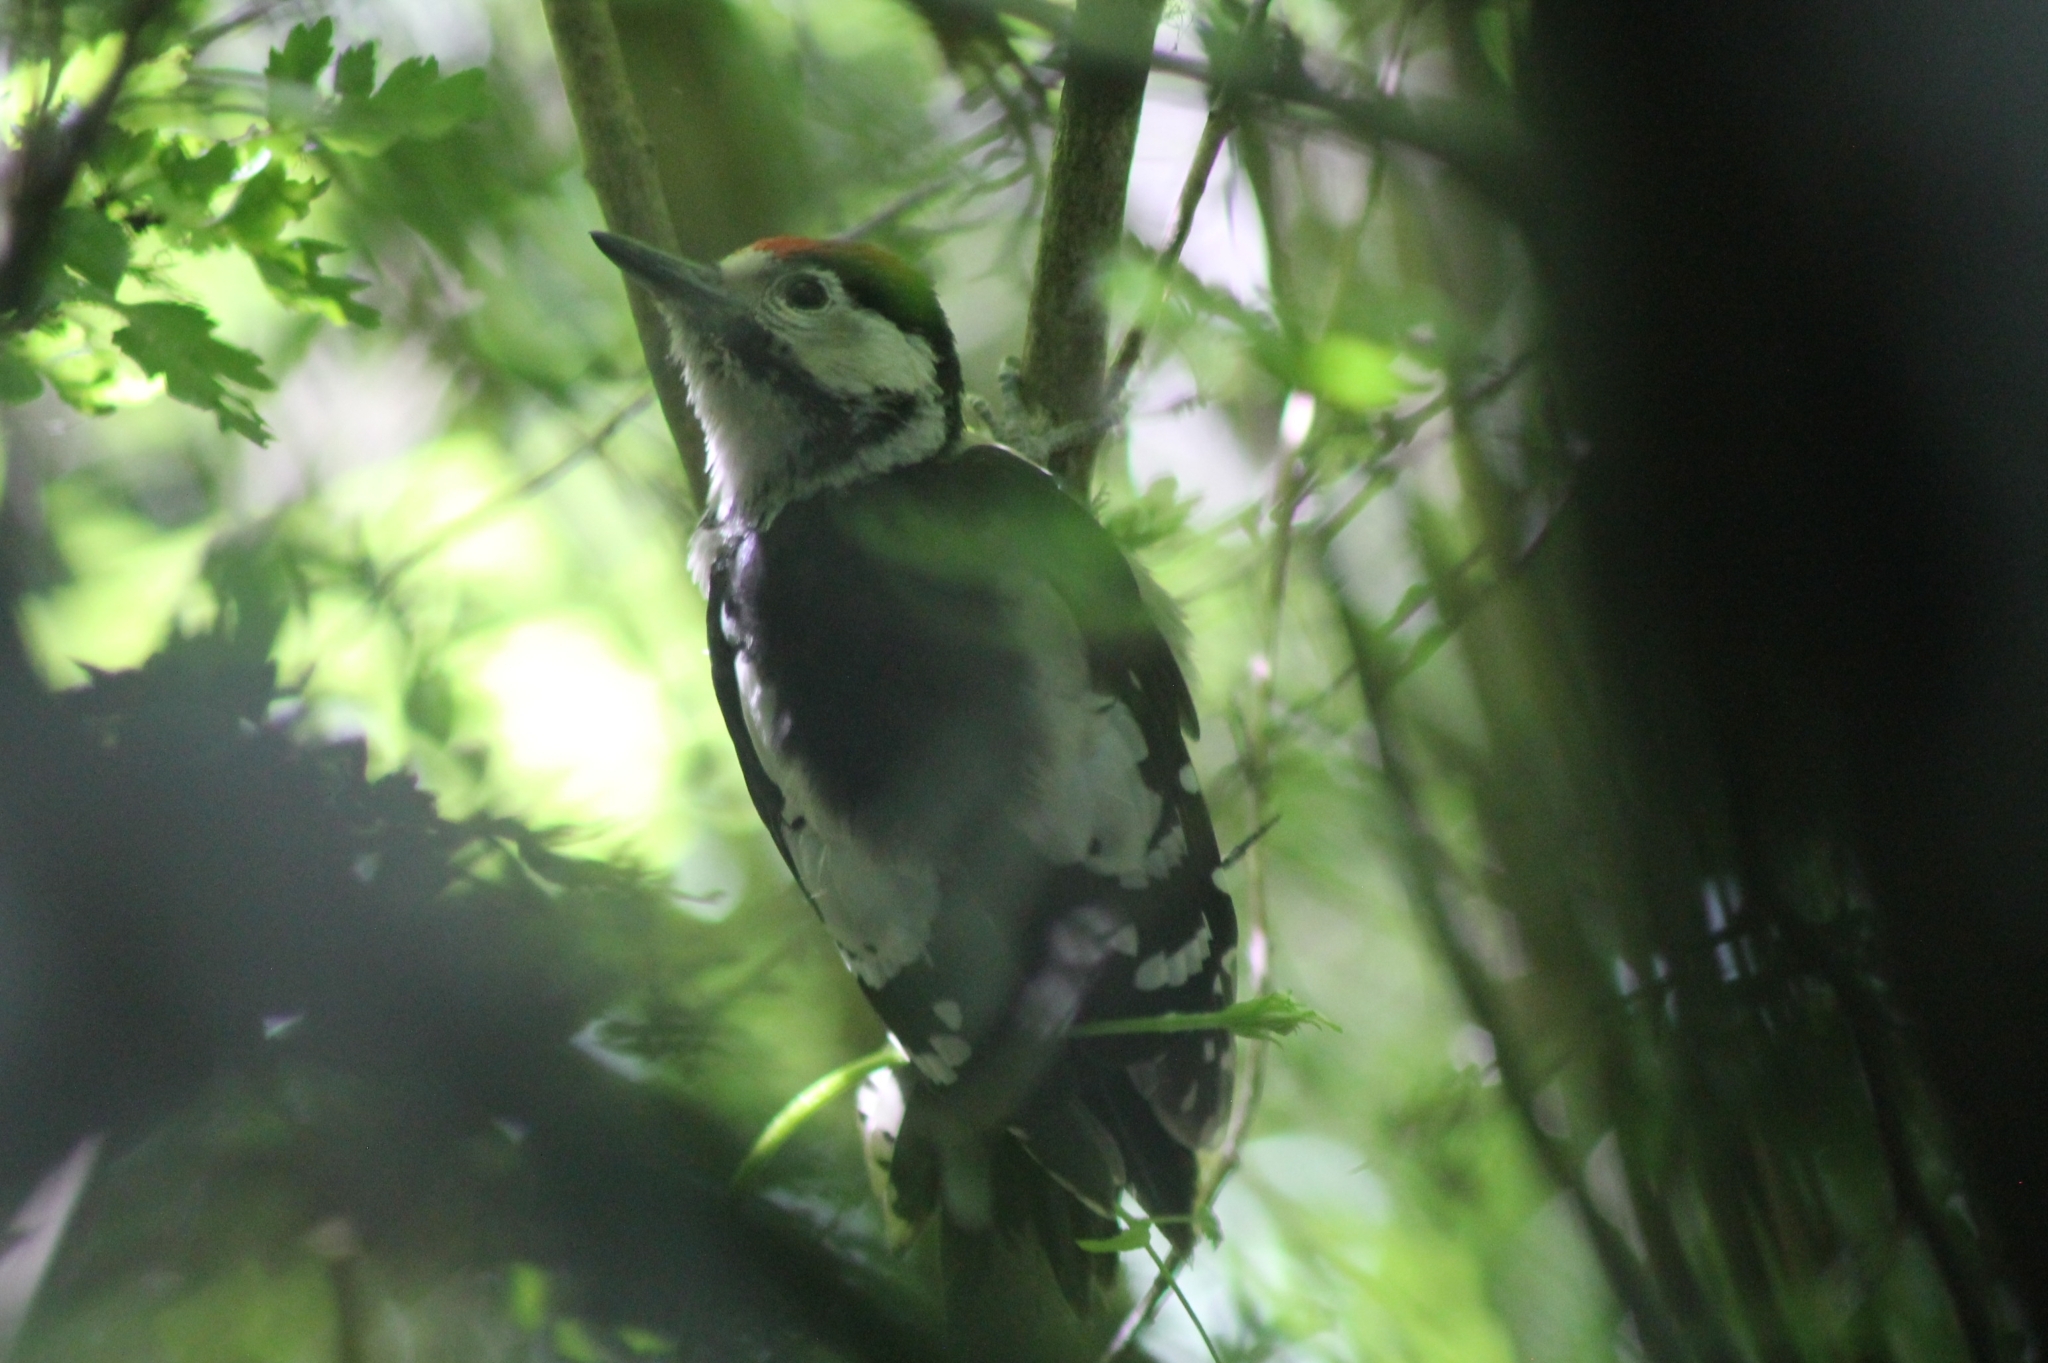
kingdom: Animalia
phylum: Chordata
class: Aves
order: Piciformes
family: Picidae
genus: Dendrocopos
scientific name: Dendrocopos major
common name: Great spotted woodpecker
